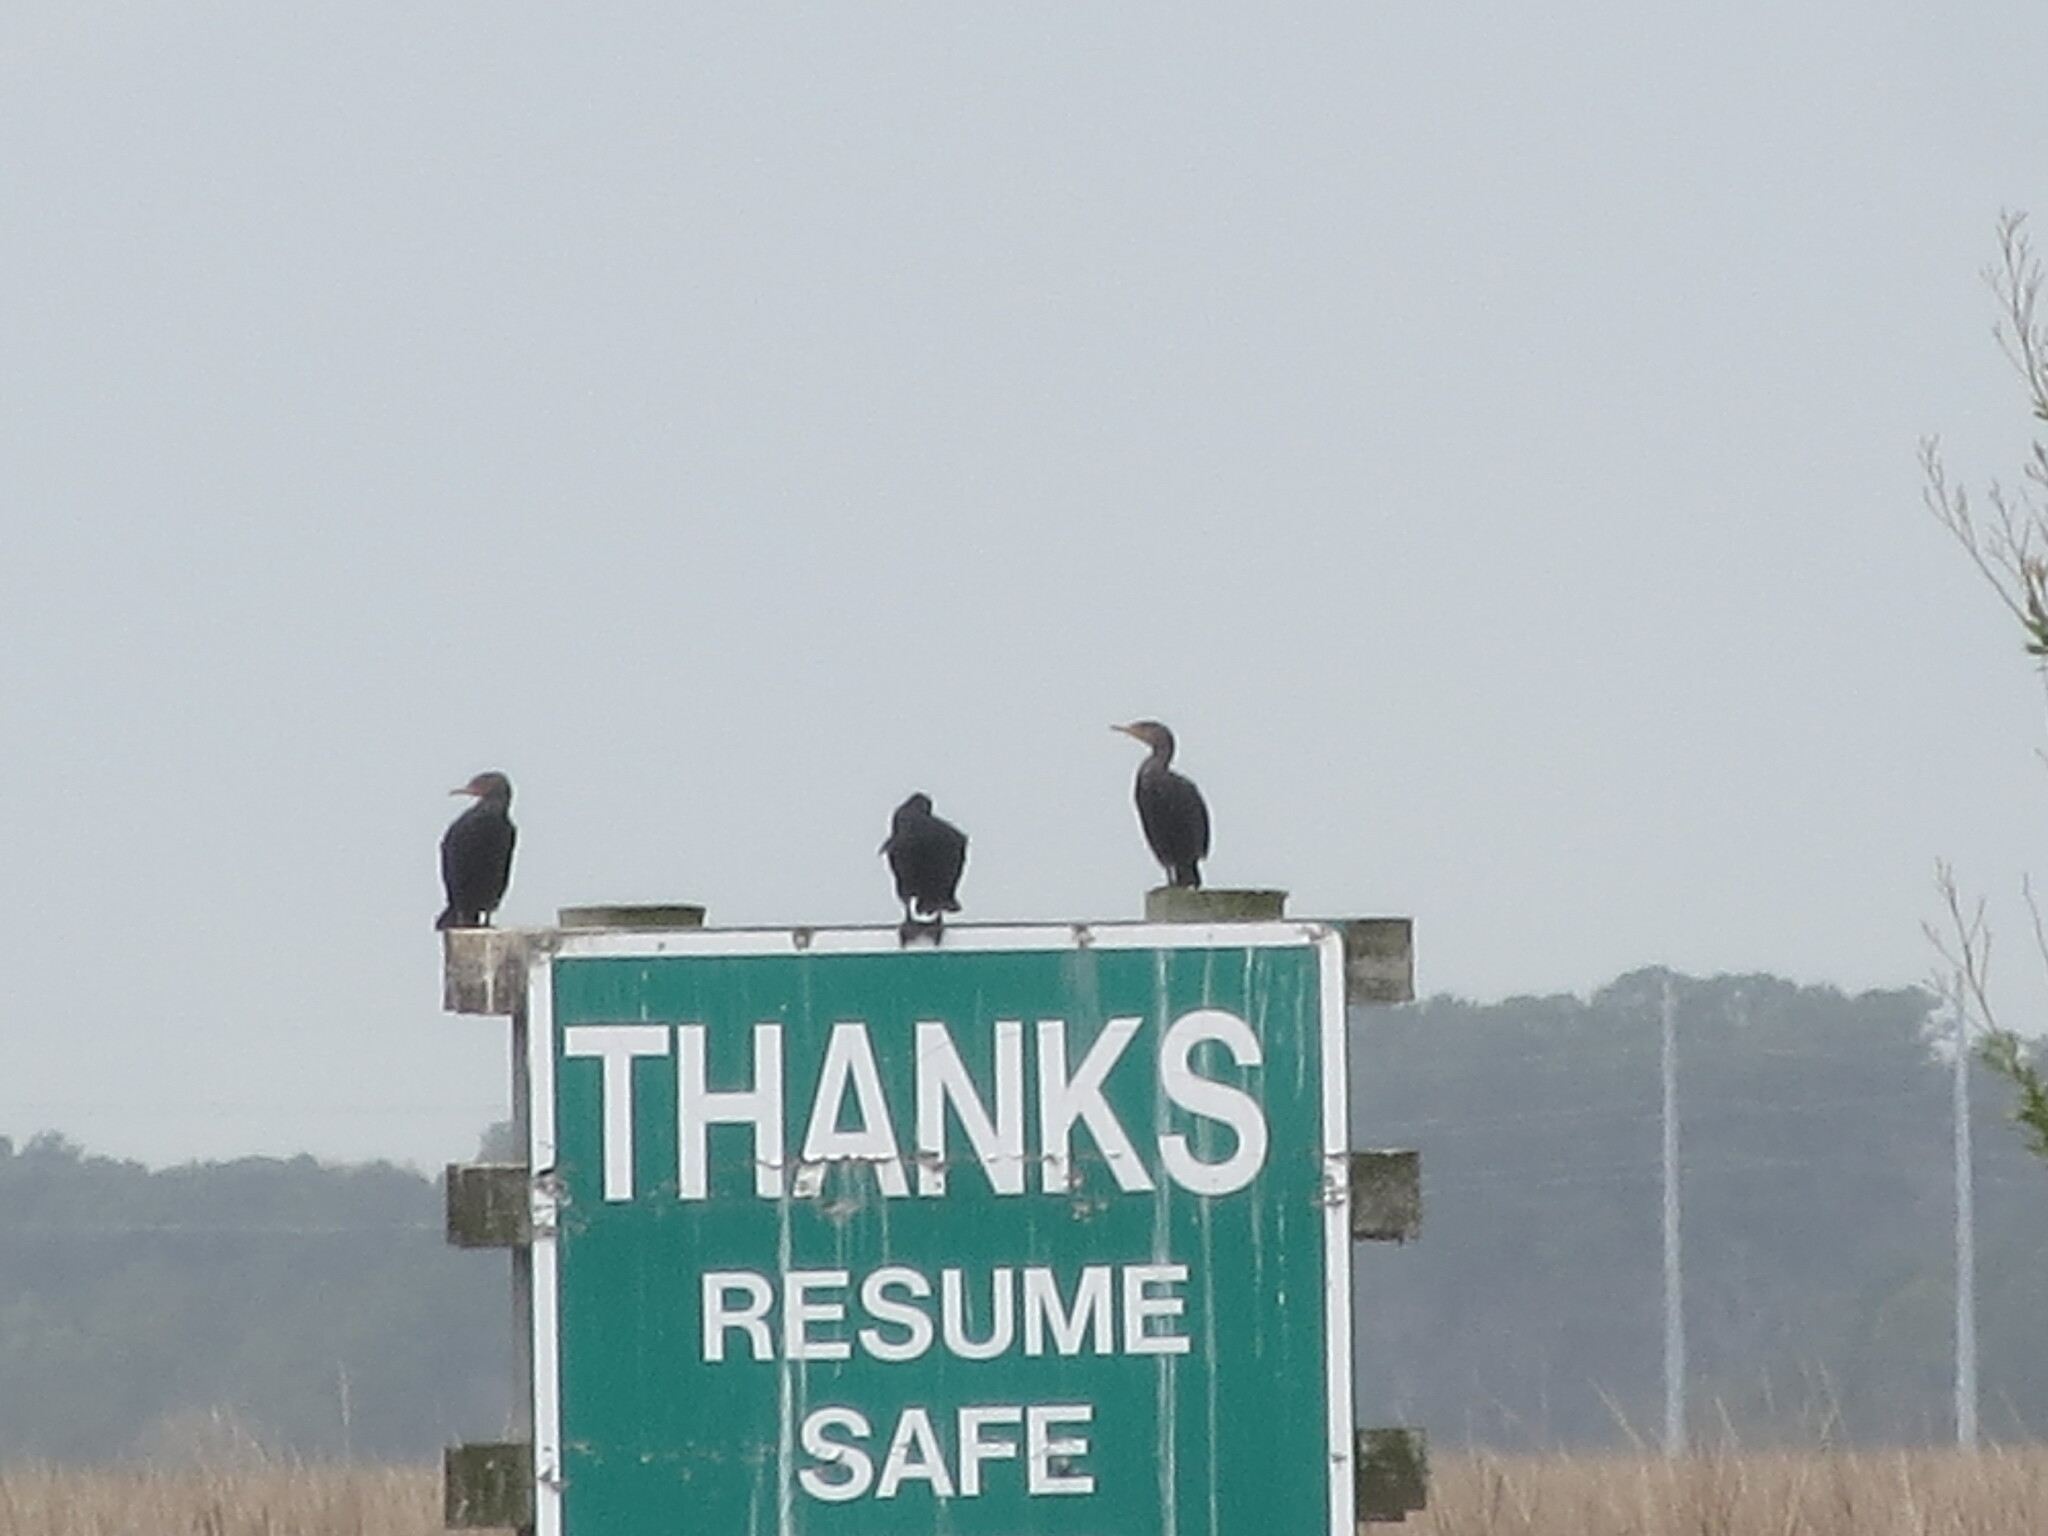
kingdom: Animalia
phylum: Chordata
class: Aves
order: Suliformes
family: Phalacrocoracidae
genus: Phalacrocorax
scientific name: Phalacrocorax auritus
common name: Double-crested cormorant
